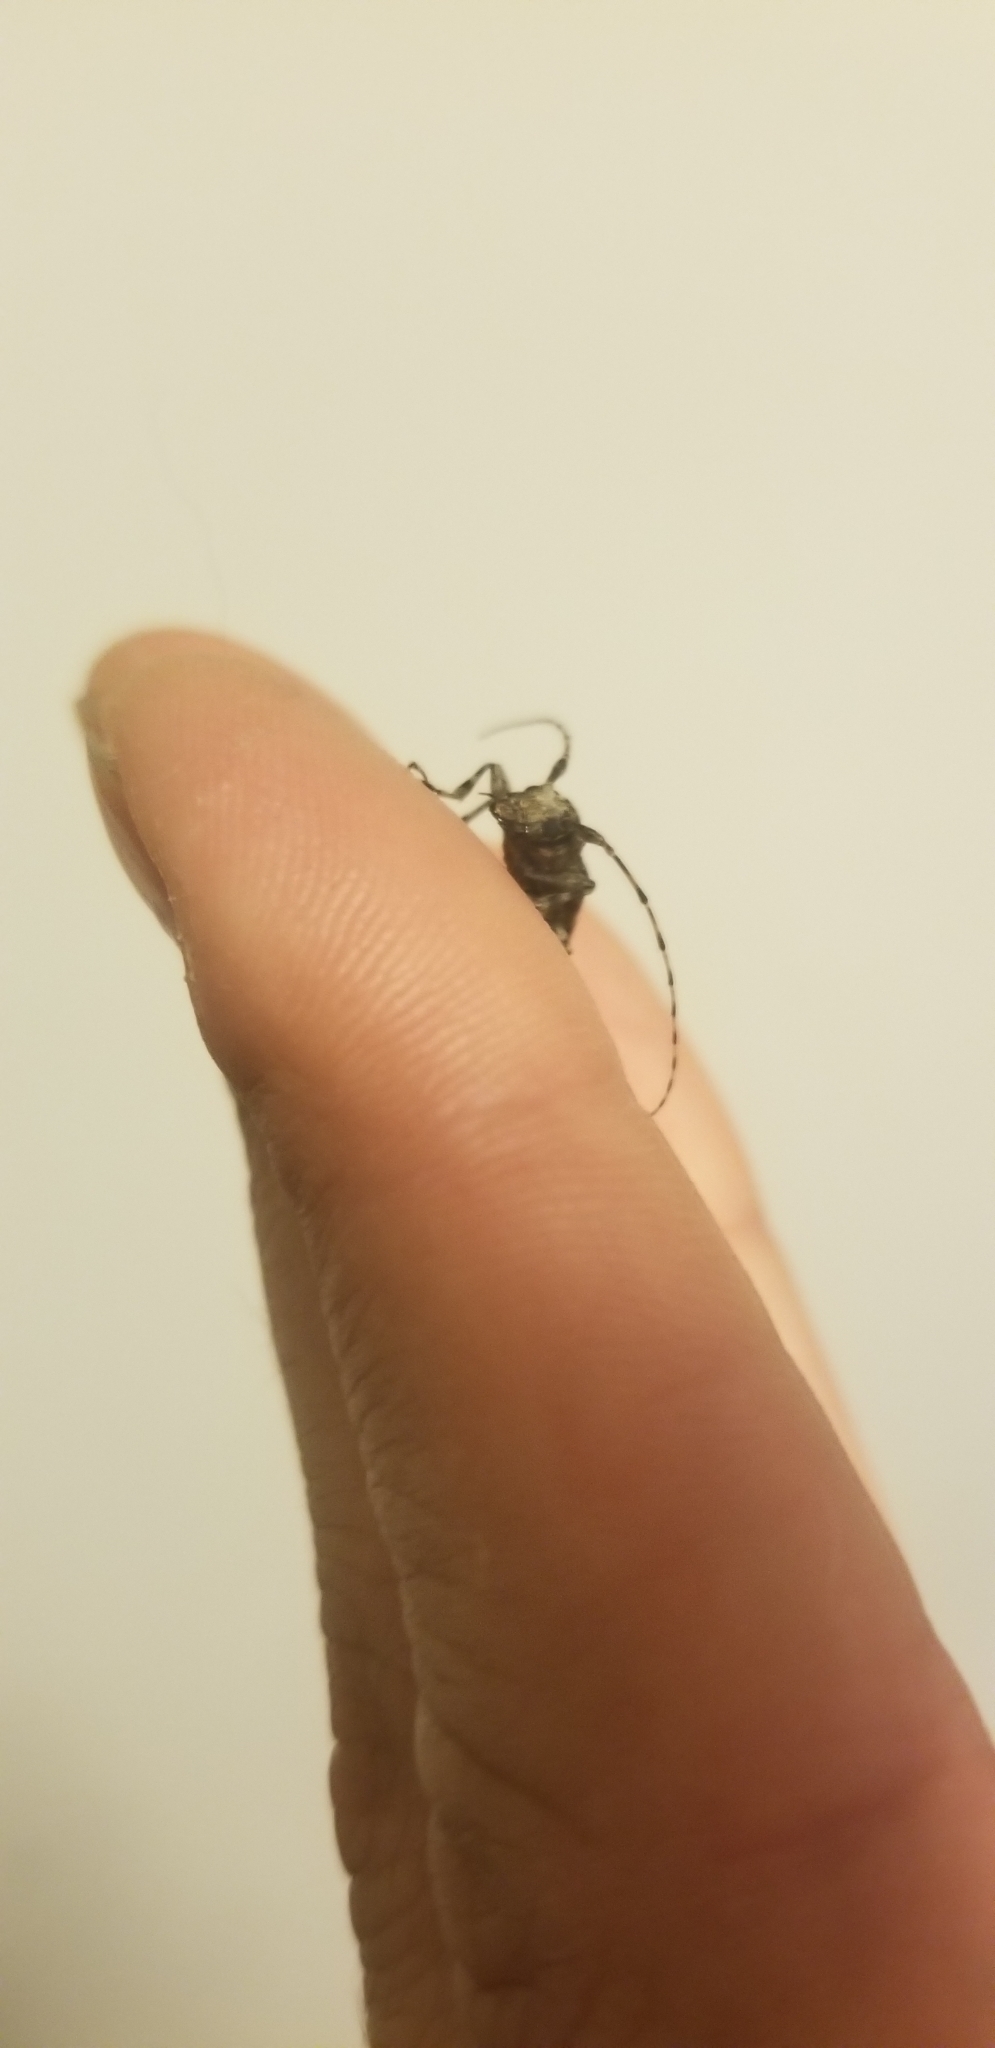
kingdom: Animalia
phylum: Arthropoda
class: Insecta
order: Coleoptera
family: Cerambycidae
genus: Aegomorphus
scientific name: Aegomorphus modestus
